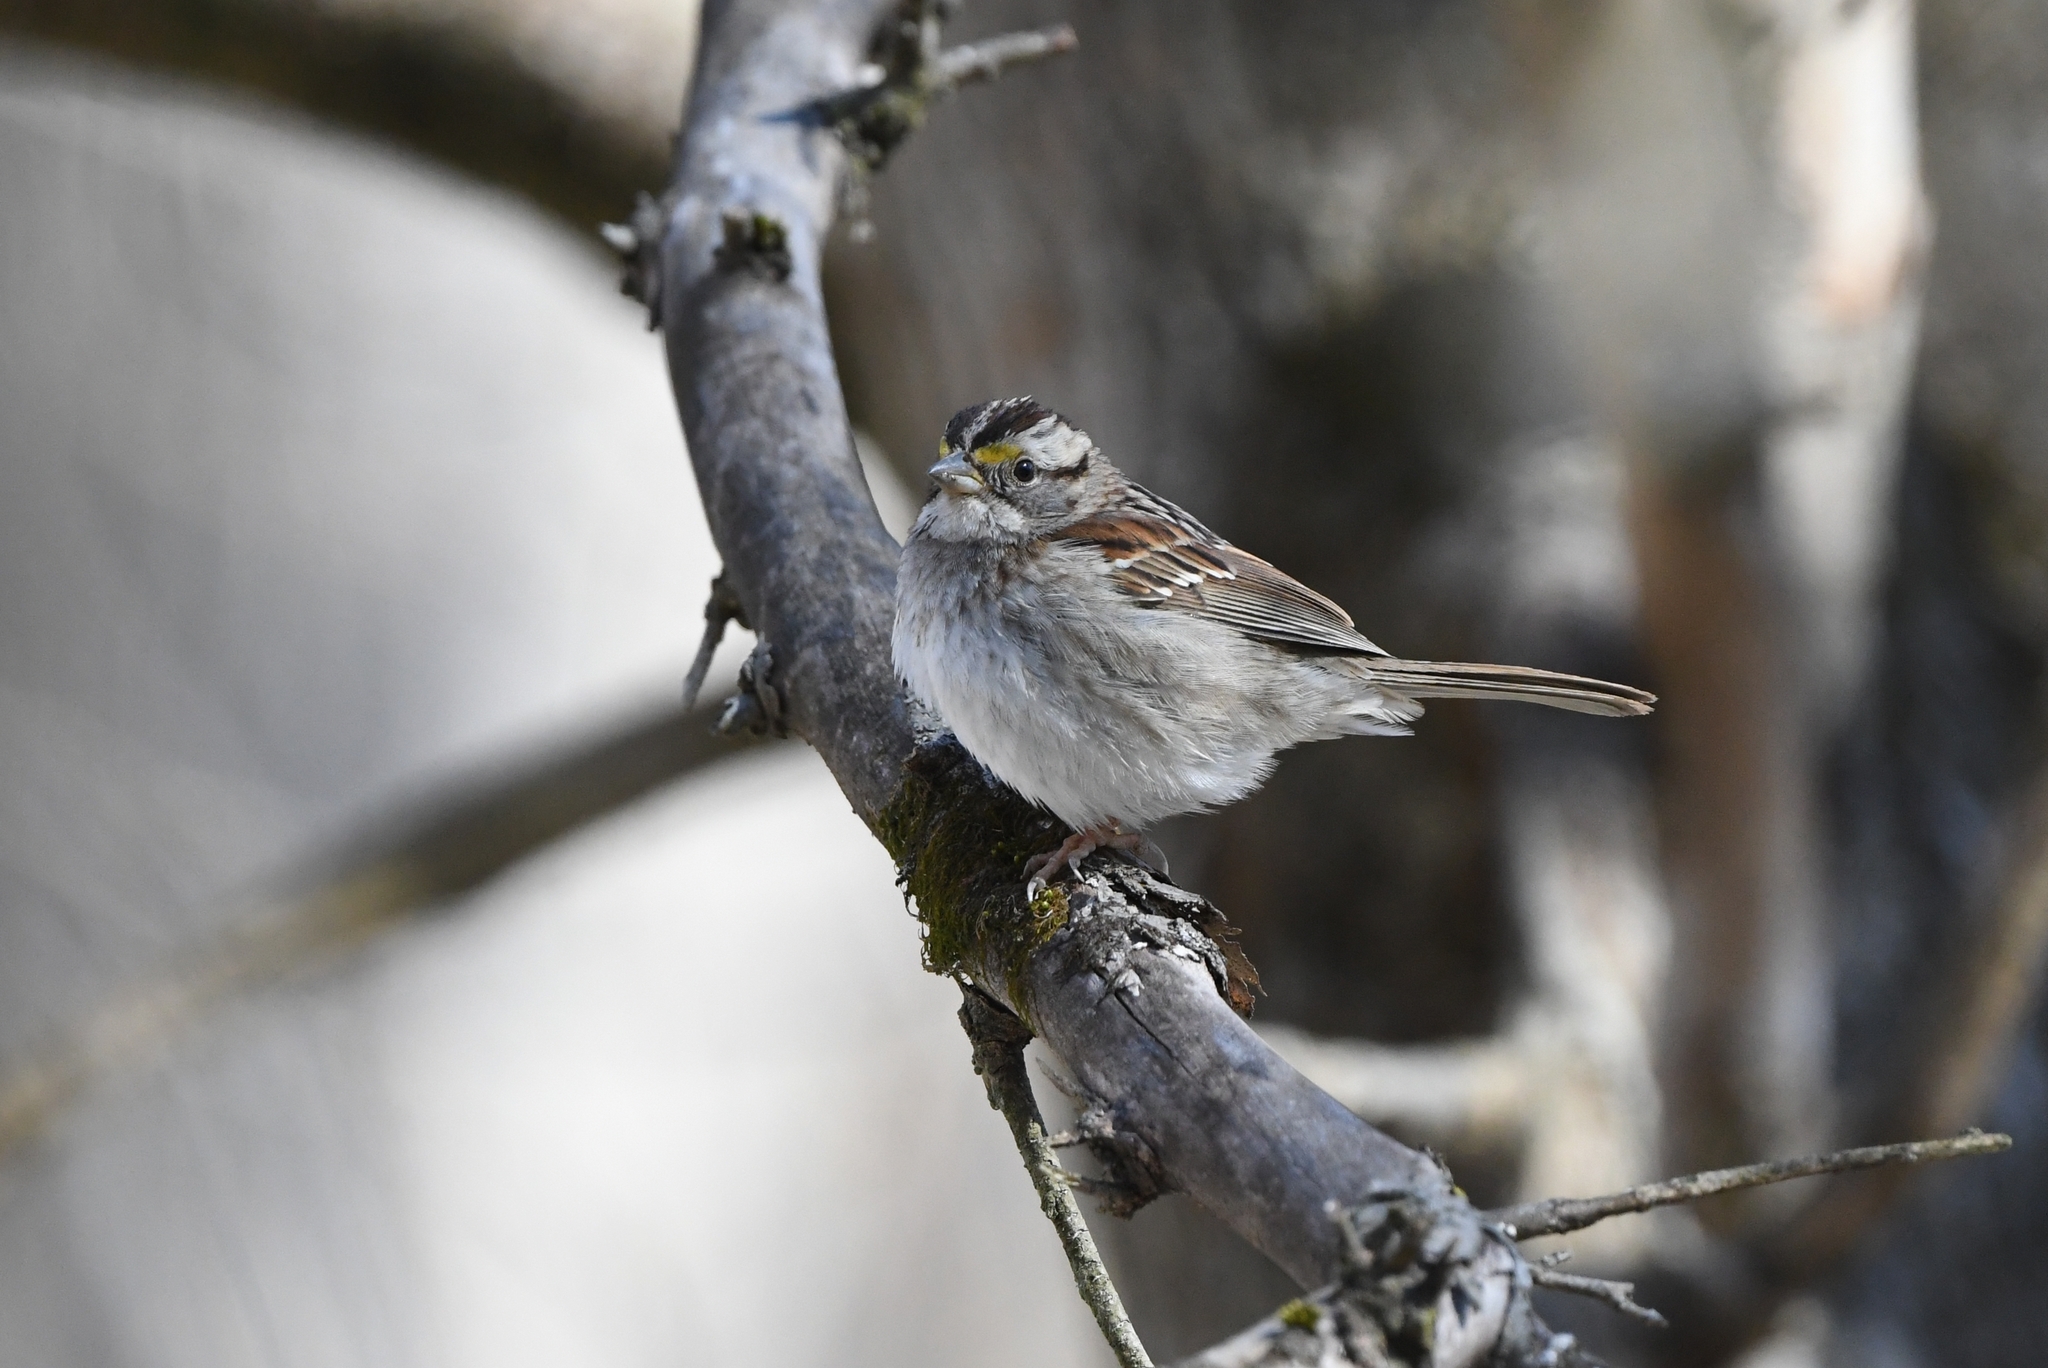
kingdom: Animalia
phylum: Chordata
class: Aves
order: Passeriformes
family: Passerellidae
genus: Zonotrichia
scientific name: Zonotrichia albicollis
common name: White-throated sparrow
